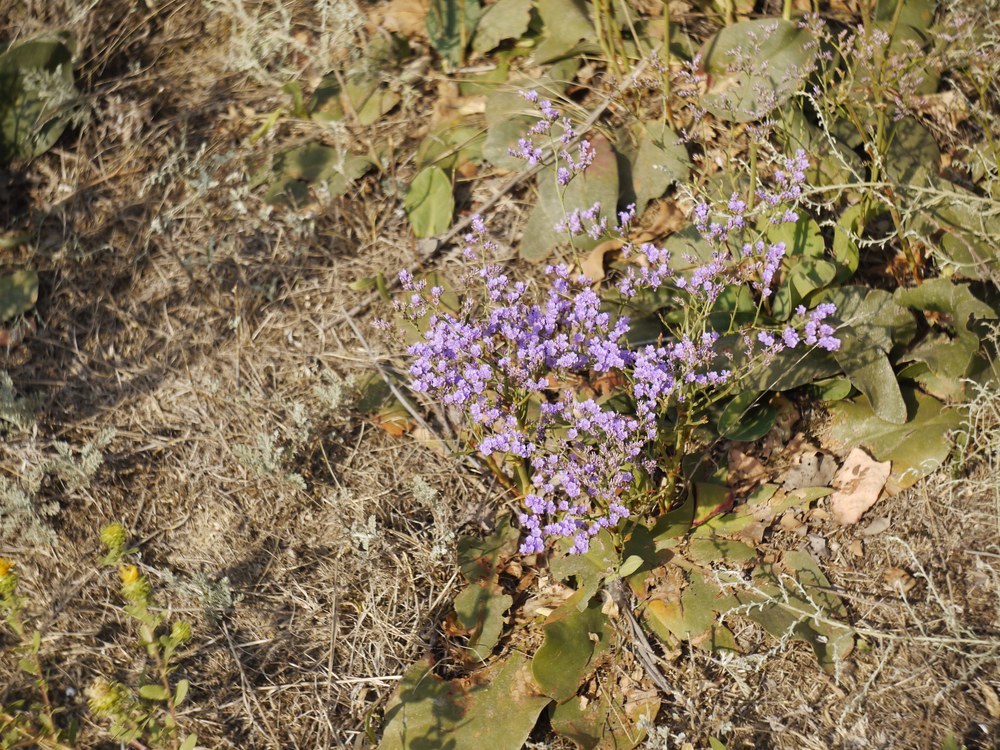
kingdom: Plantae
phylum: Tracheophyta
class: Magnoliopsida
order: Caryophyllales
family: Plumbaginaceae
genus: Limonium
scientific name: Limonium gmelini
